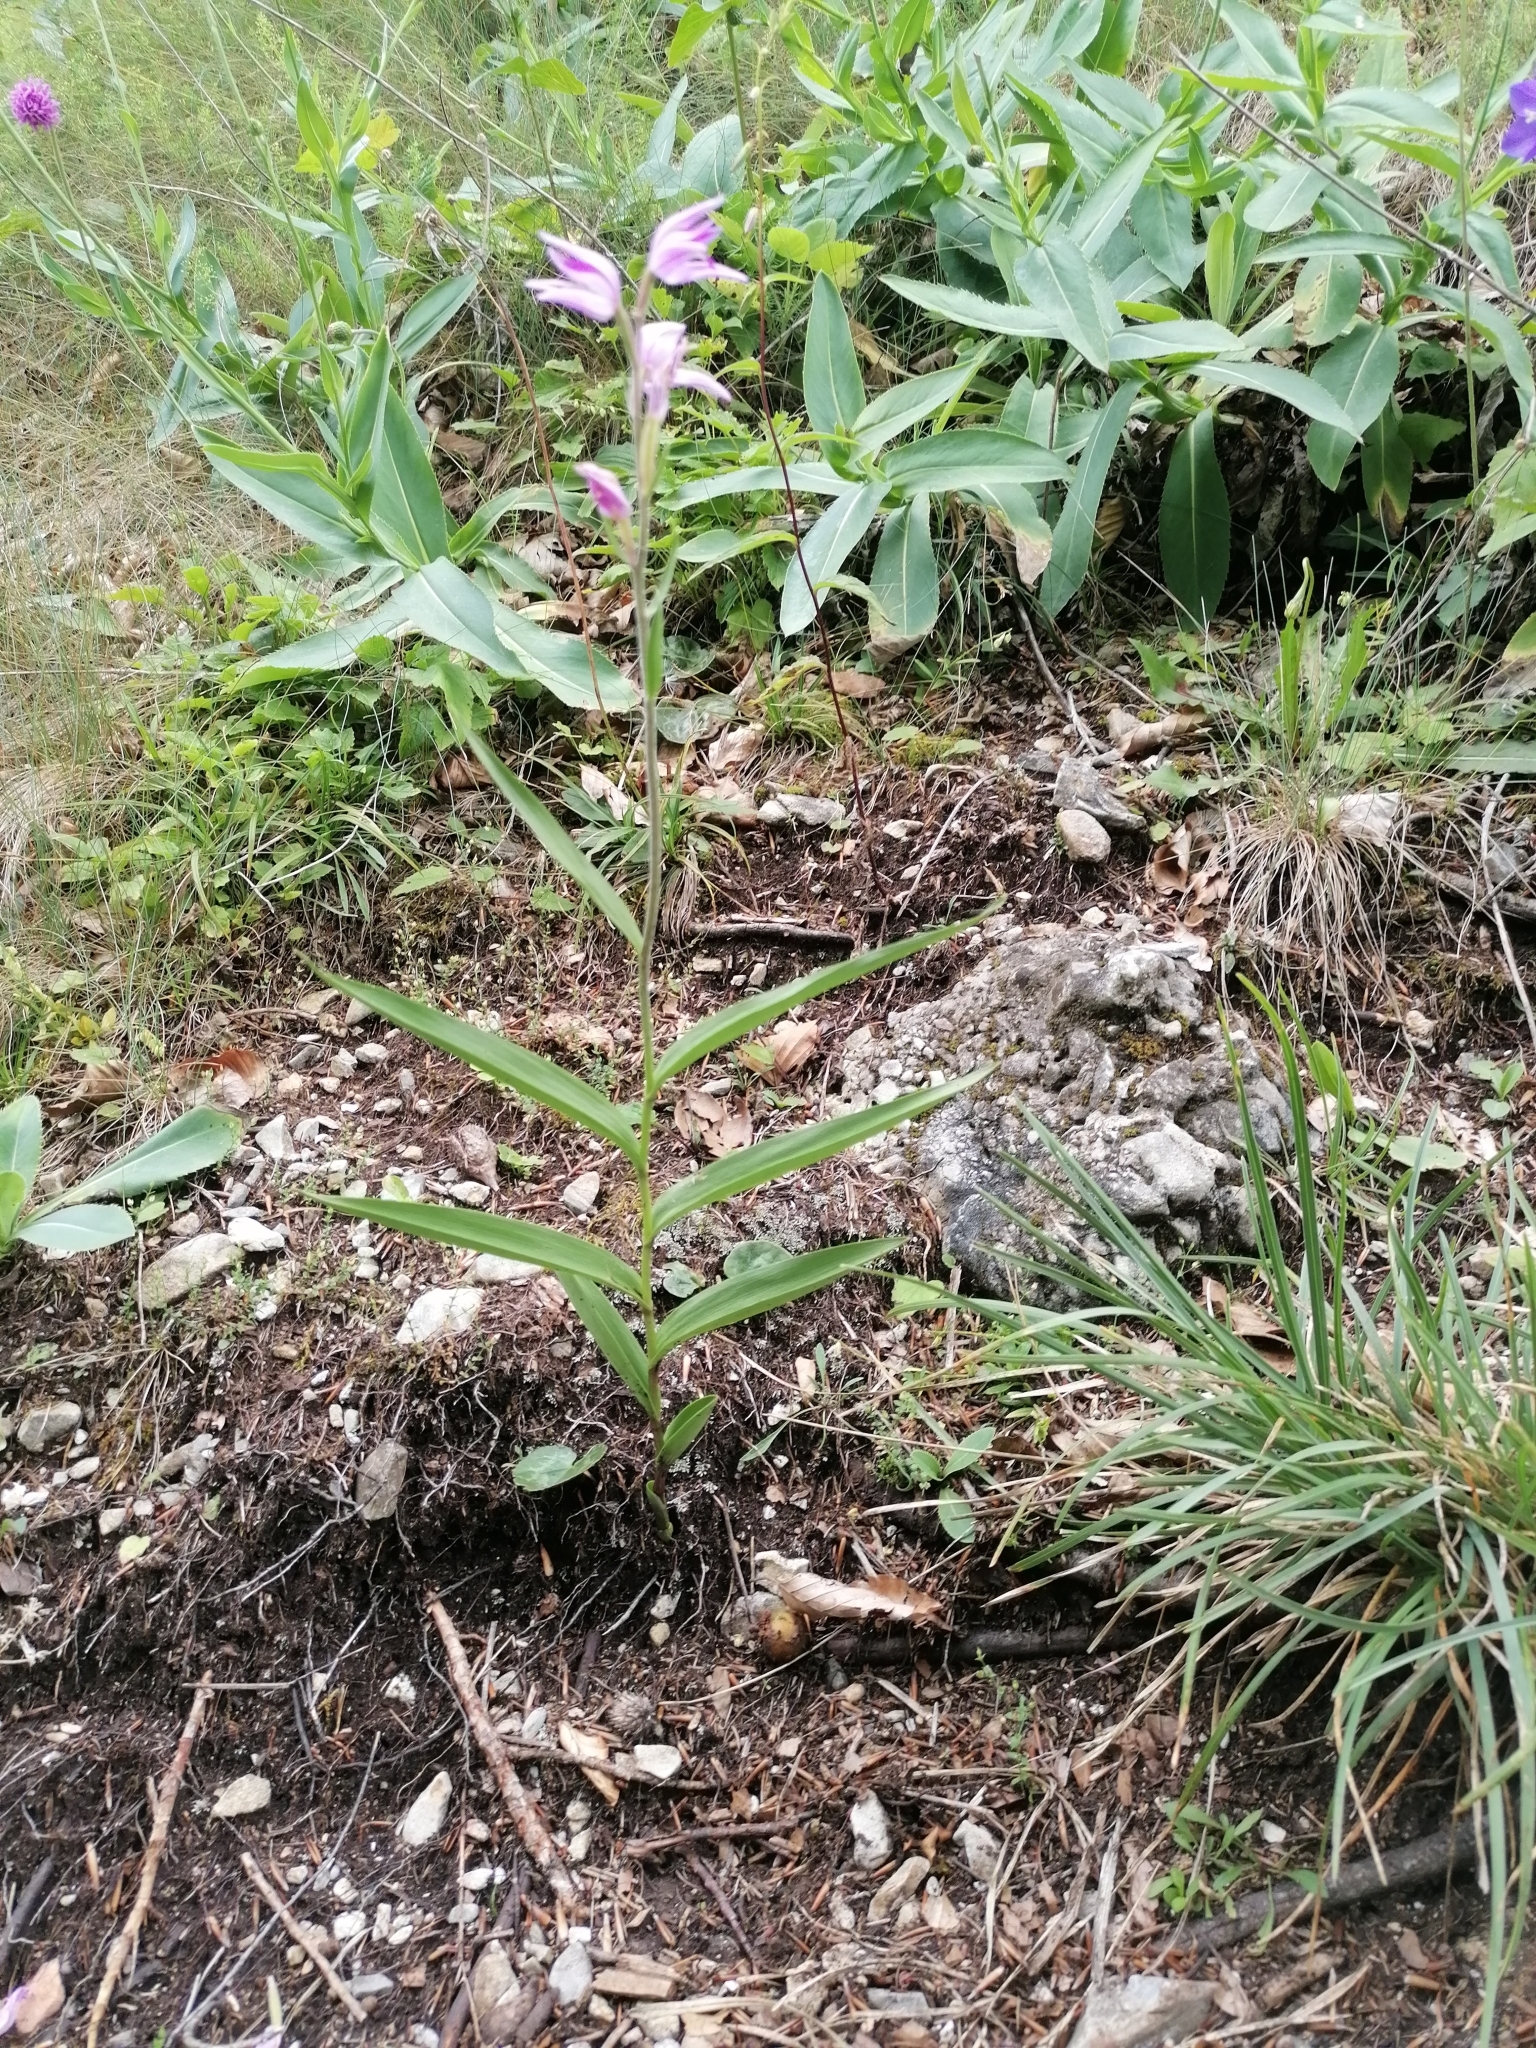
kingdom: Plantae
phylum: Tracheophyta
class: Liliopsida
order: Asparagales
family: Orchidaceae
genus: Cephalanthera
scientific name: Cephalanthera rubra
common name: Red helleborine
